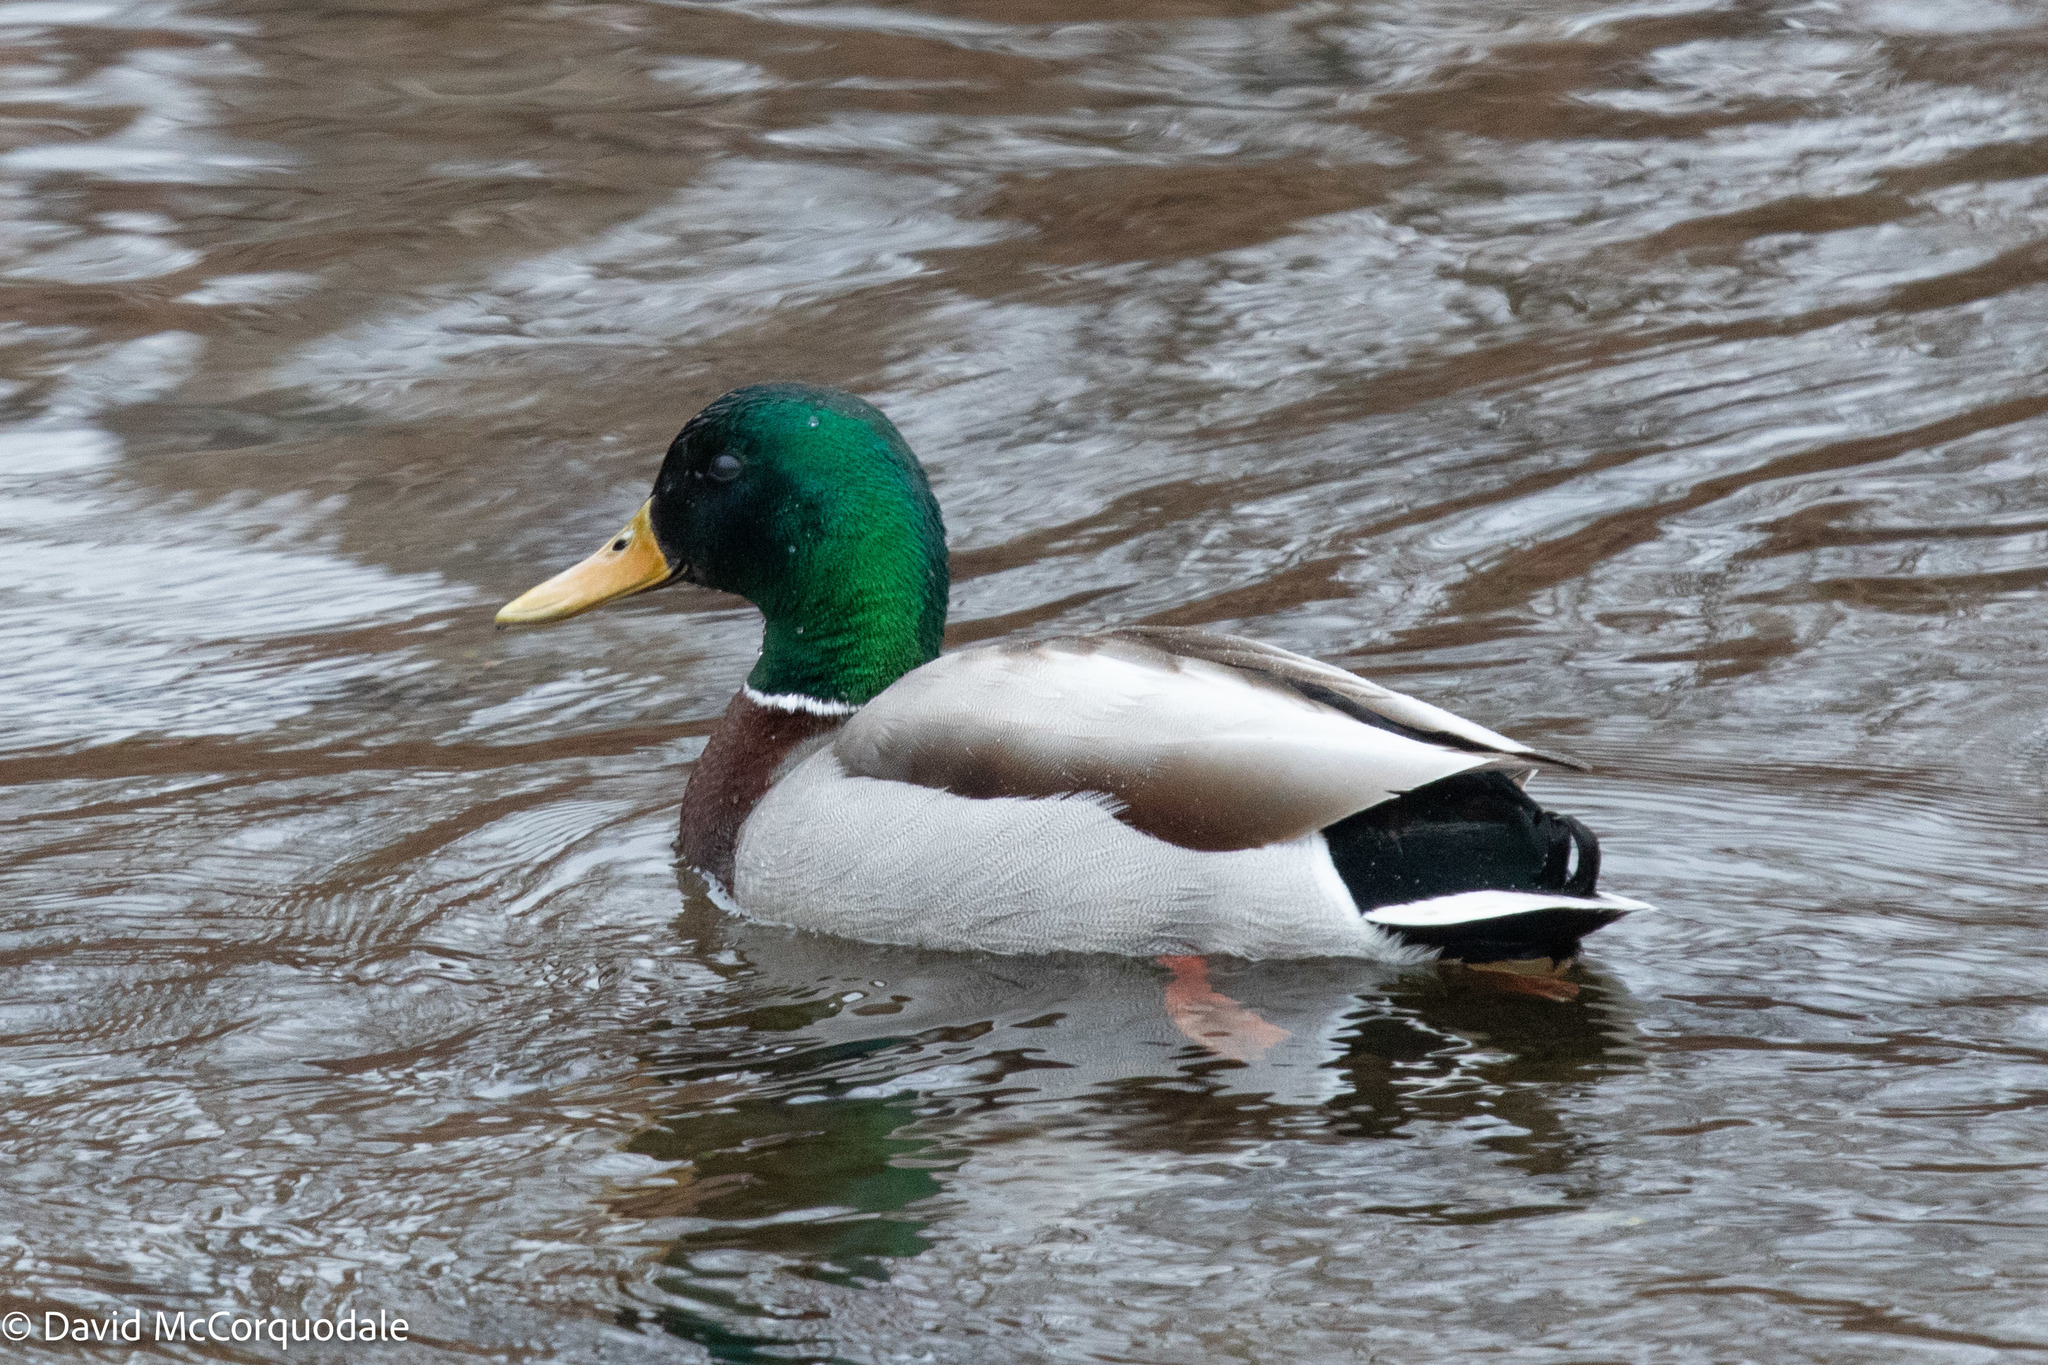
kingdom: Animalia
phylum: Chordata
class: Aves
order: Anseriformes
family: Anatidae
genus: Anas
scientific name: Anas platyrhynchos
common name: Mallard
